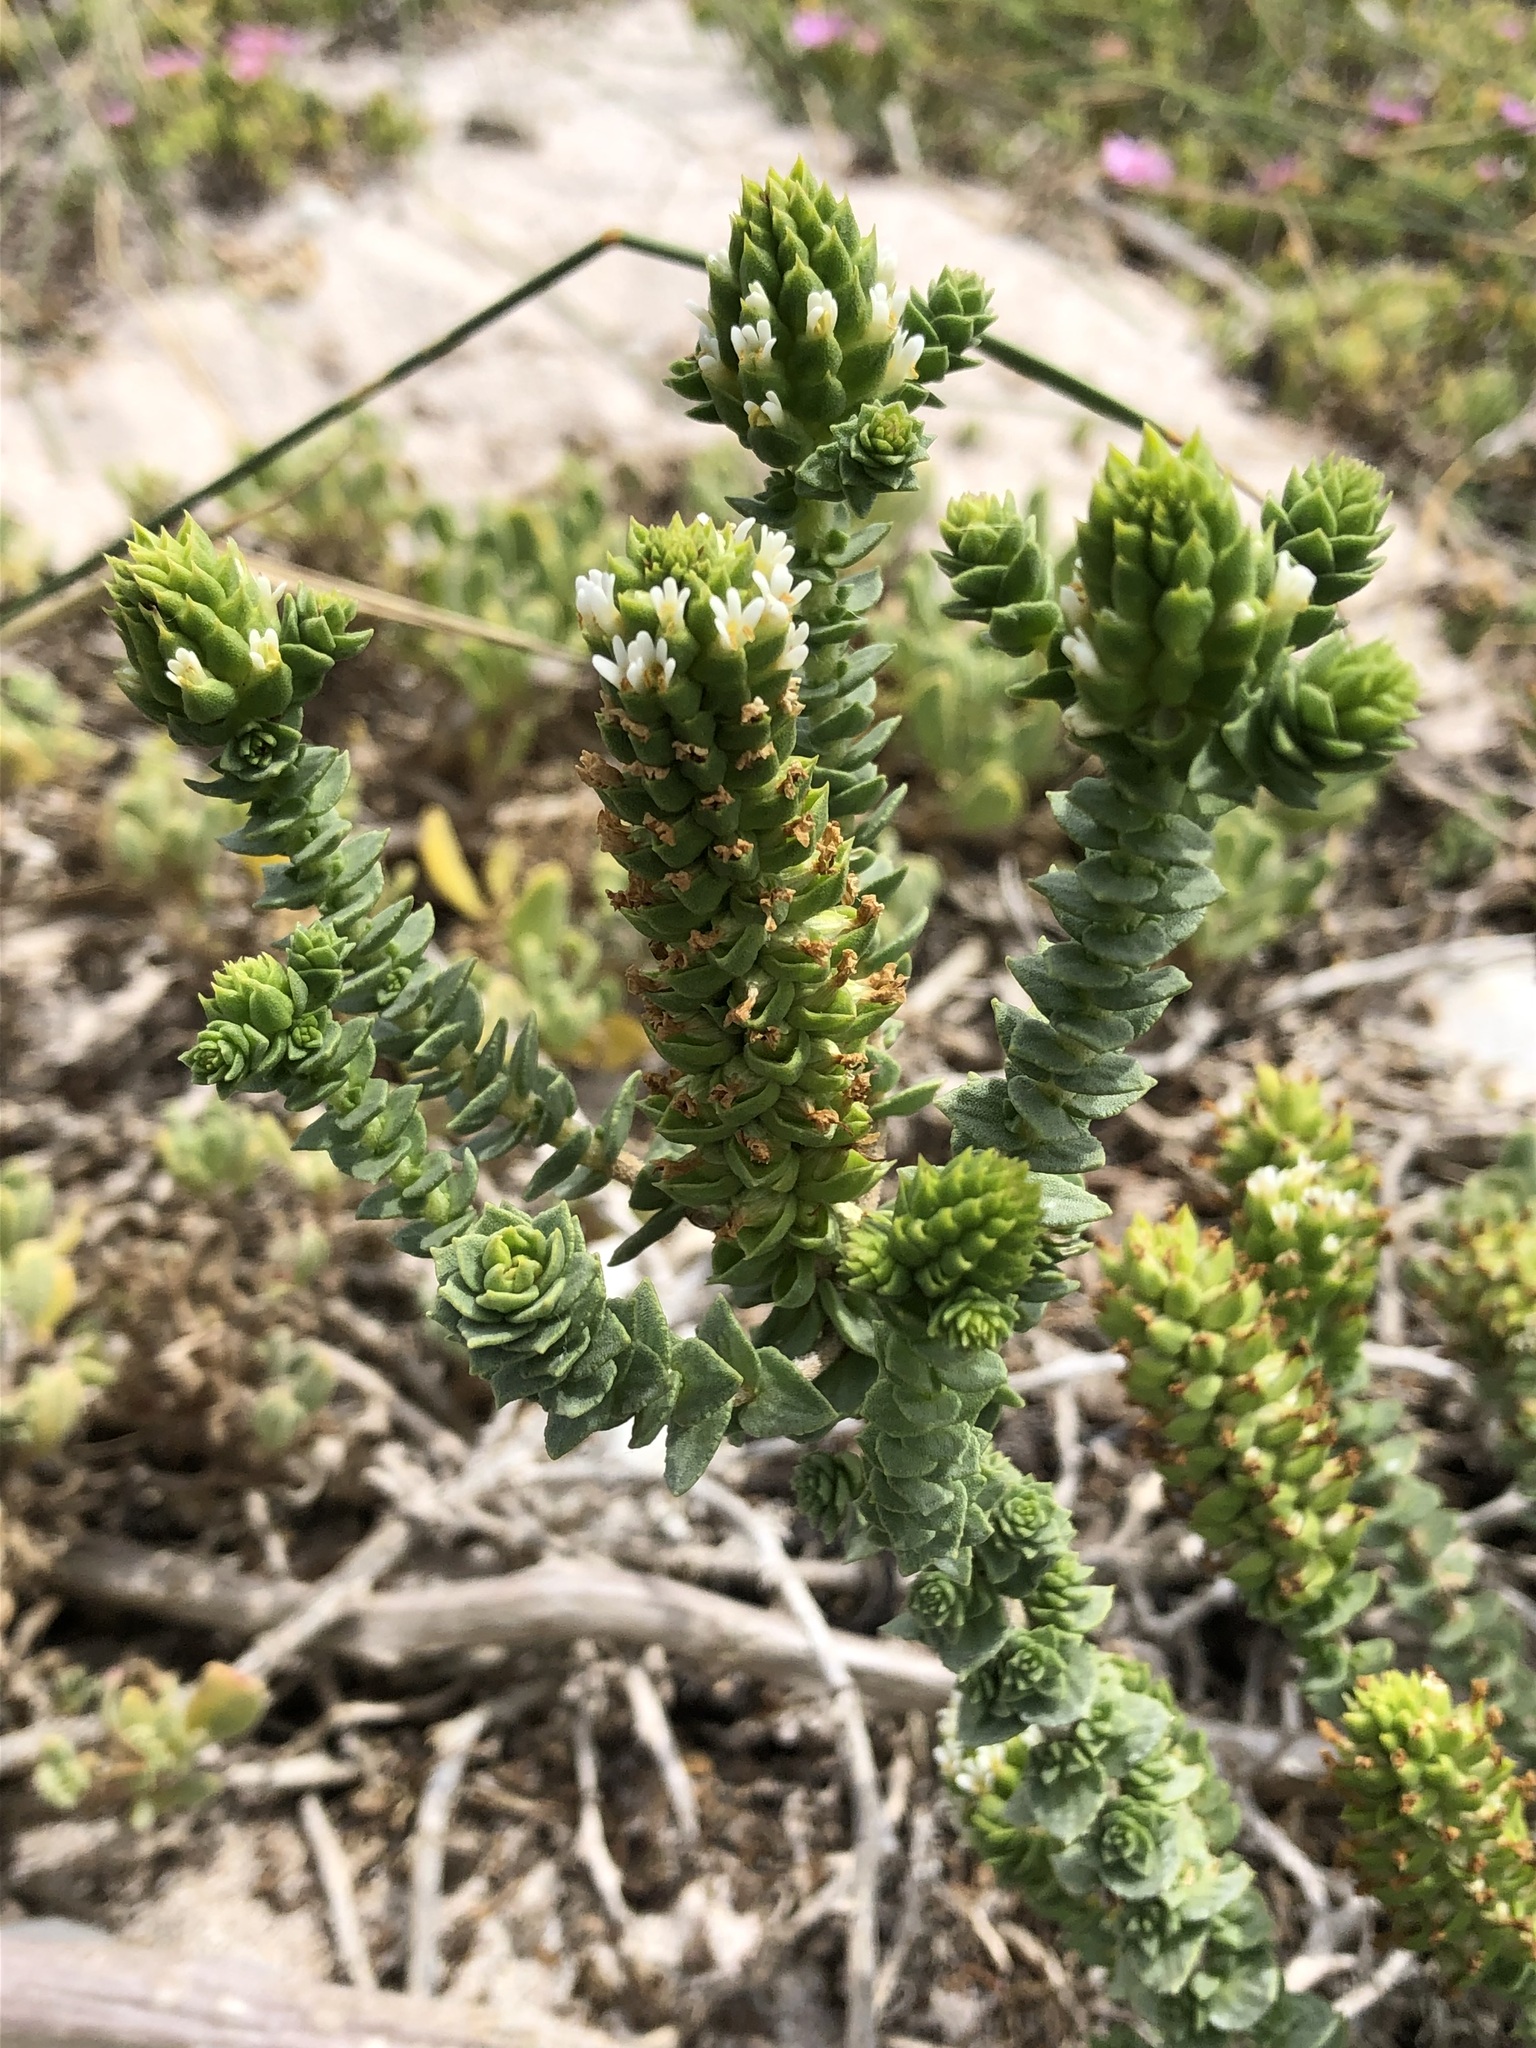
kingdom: Plantae
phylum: Tracheophyta
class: Magnoliopsida
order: Lamiales
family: Scrophulariaceae
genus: Hebenstretia
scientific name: Hebenstretia cordata
